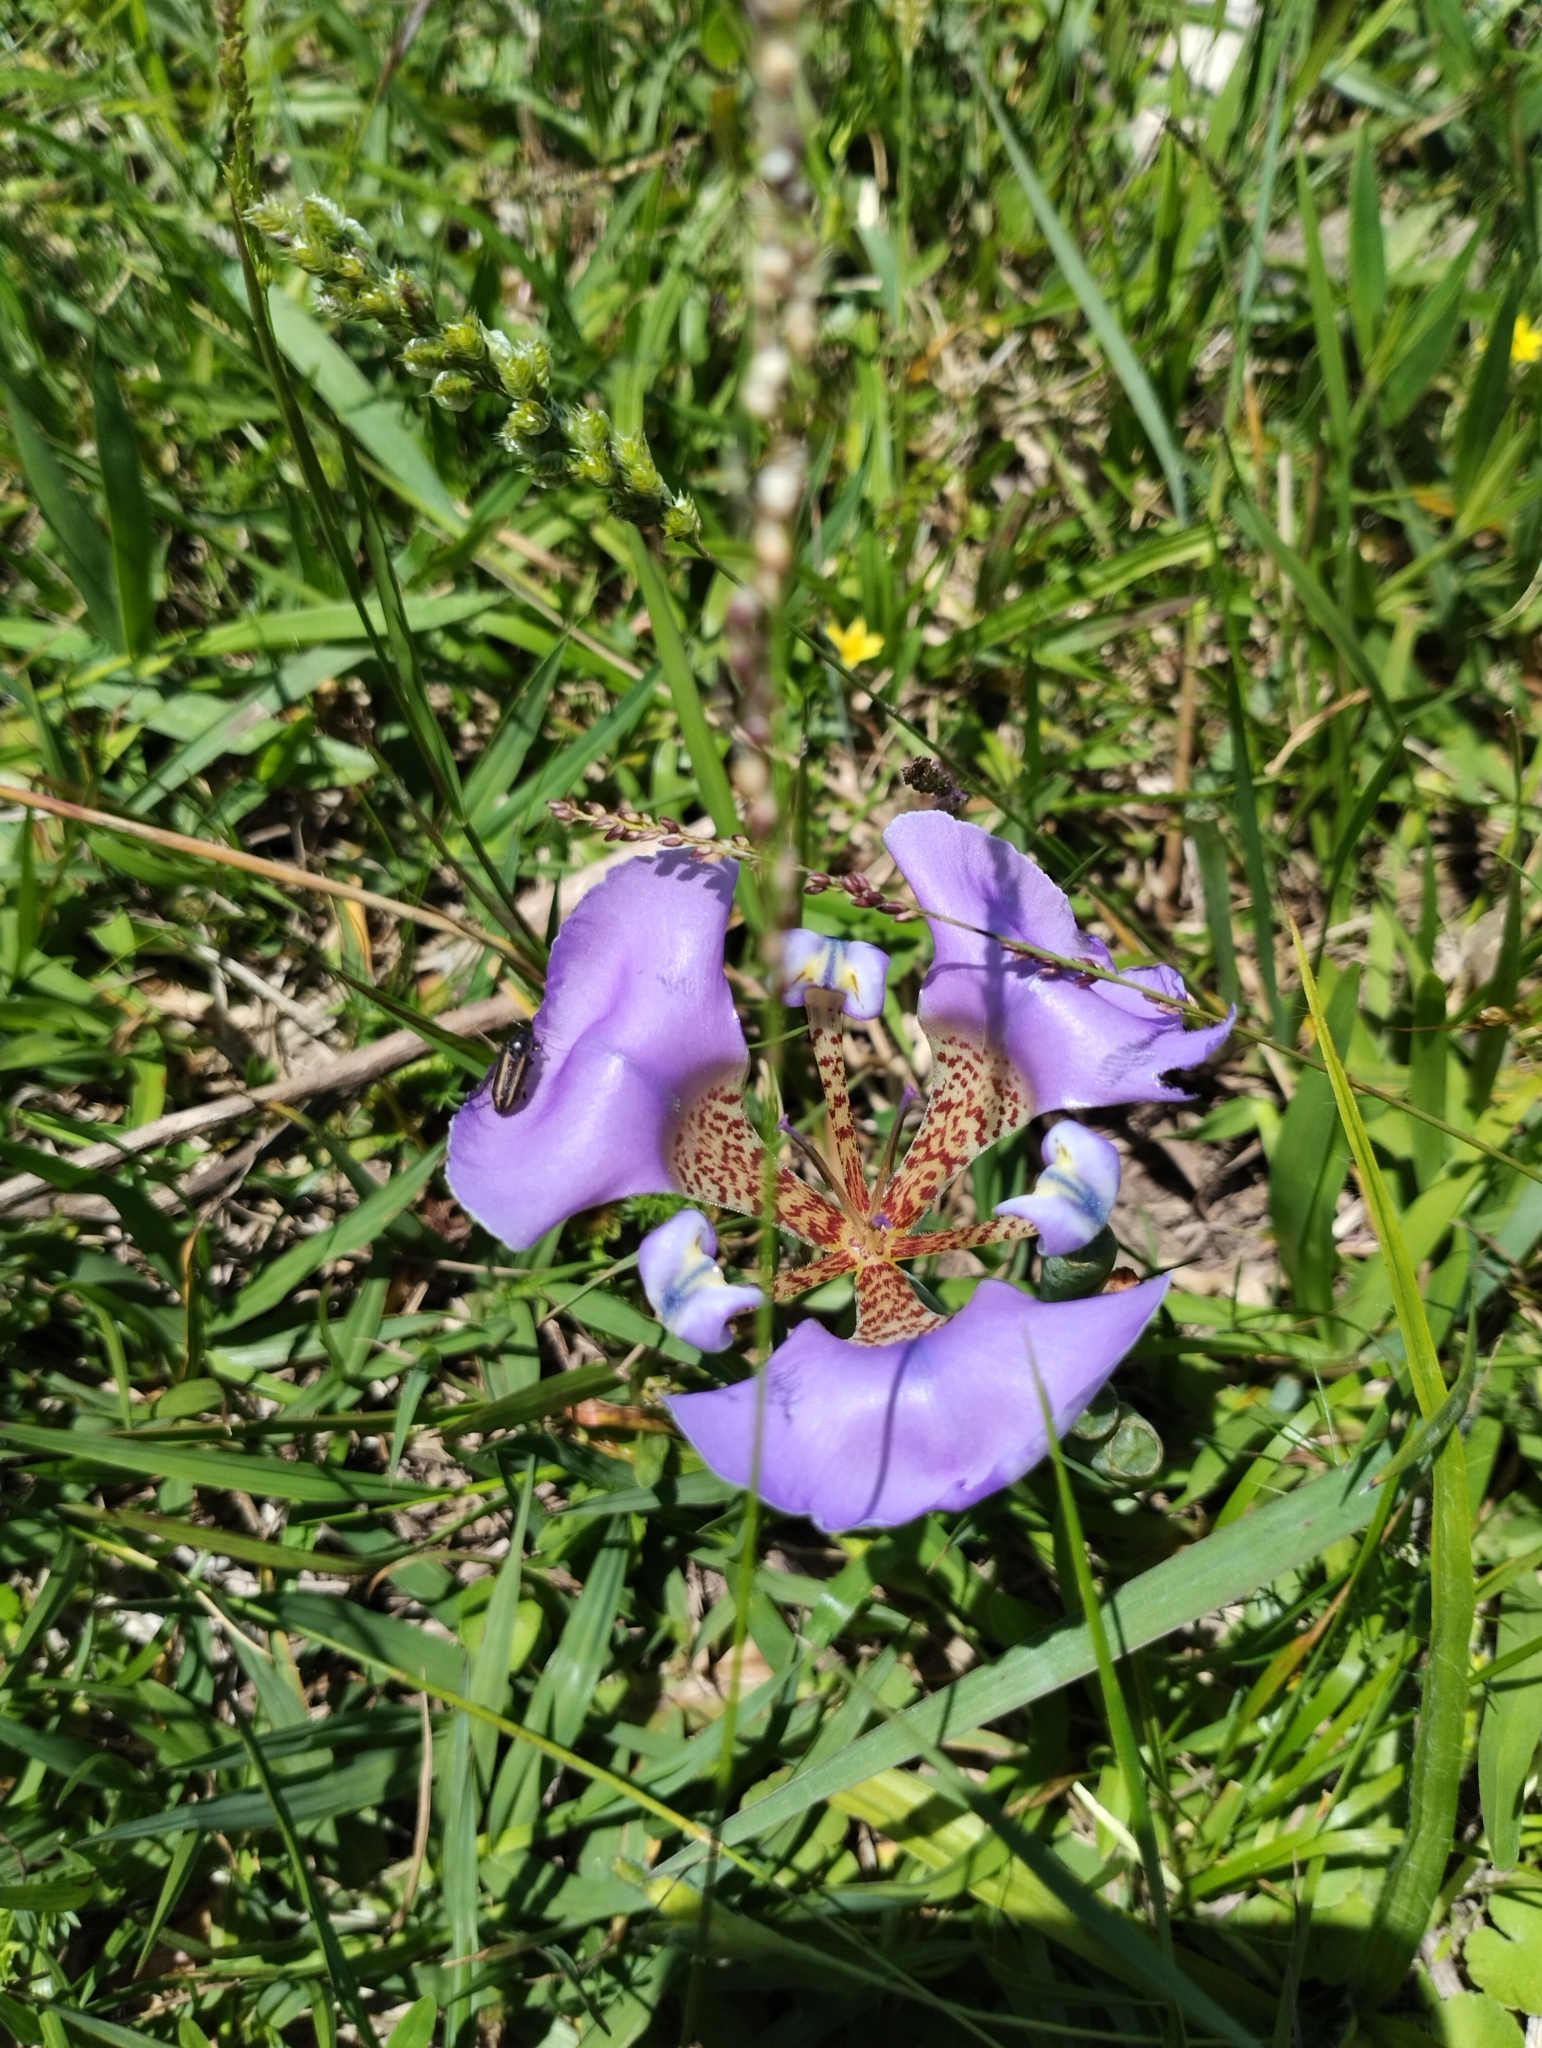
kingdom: Plantae
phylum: Tracheophyta
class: Liliopsida
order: Asparagales
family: Iridaceae
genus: Cypella
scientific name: Cypella unguiculata
